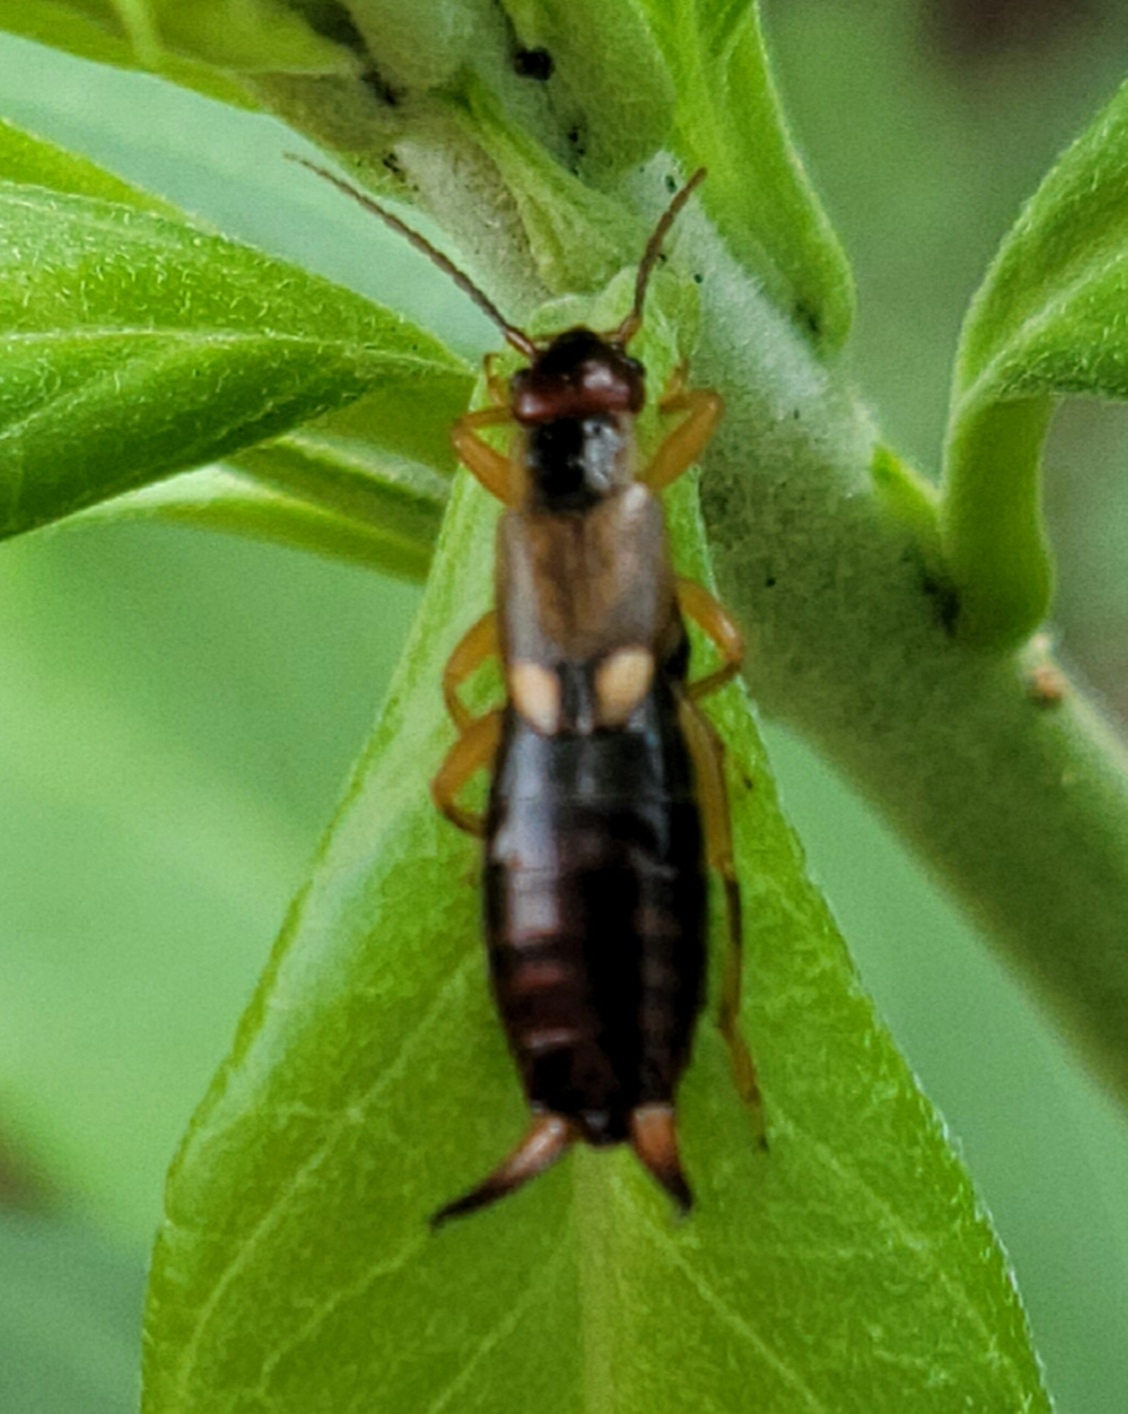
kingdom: Animalia
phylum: Arthropoda
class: Insecta
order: Dermaptera
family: Forficulidae
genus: Forficula
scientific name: Forficula
